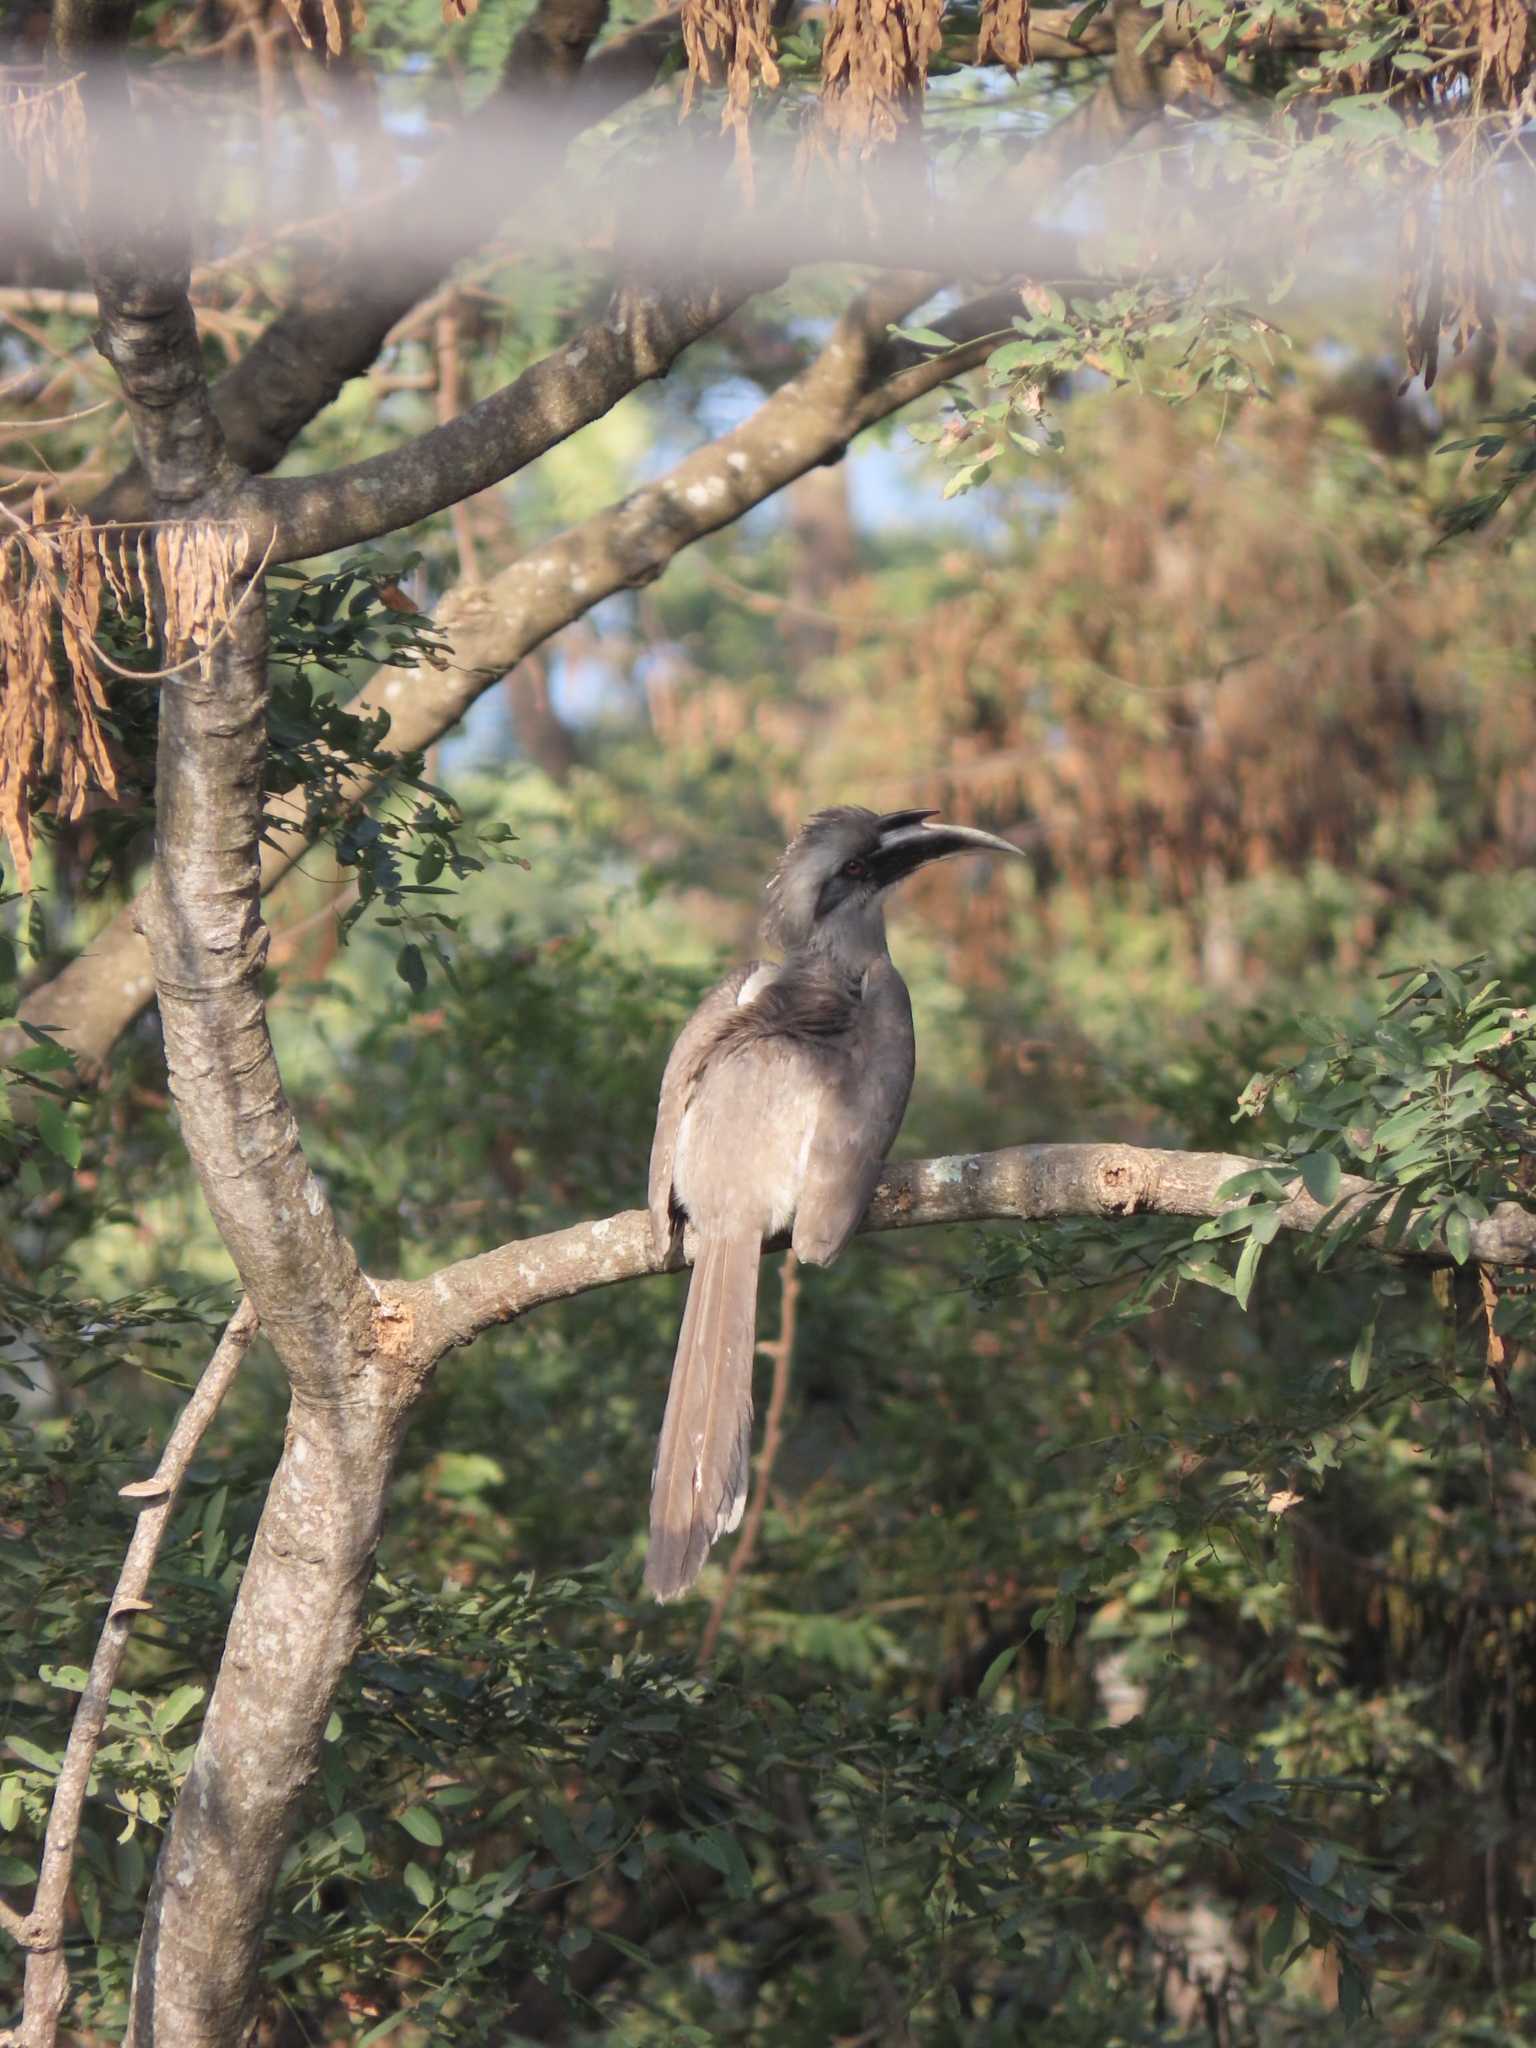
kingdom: Animalia
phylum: Chordata
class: Aves
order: Bucerotiformes
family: Bucerotidae
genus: Ocyceros
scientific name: Ocyceros birostris
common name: Indian grey hornbill
